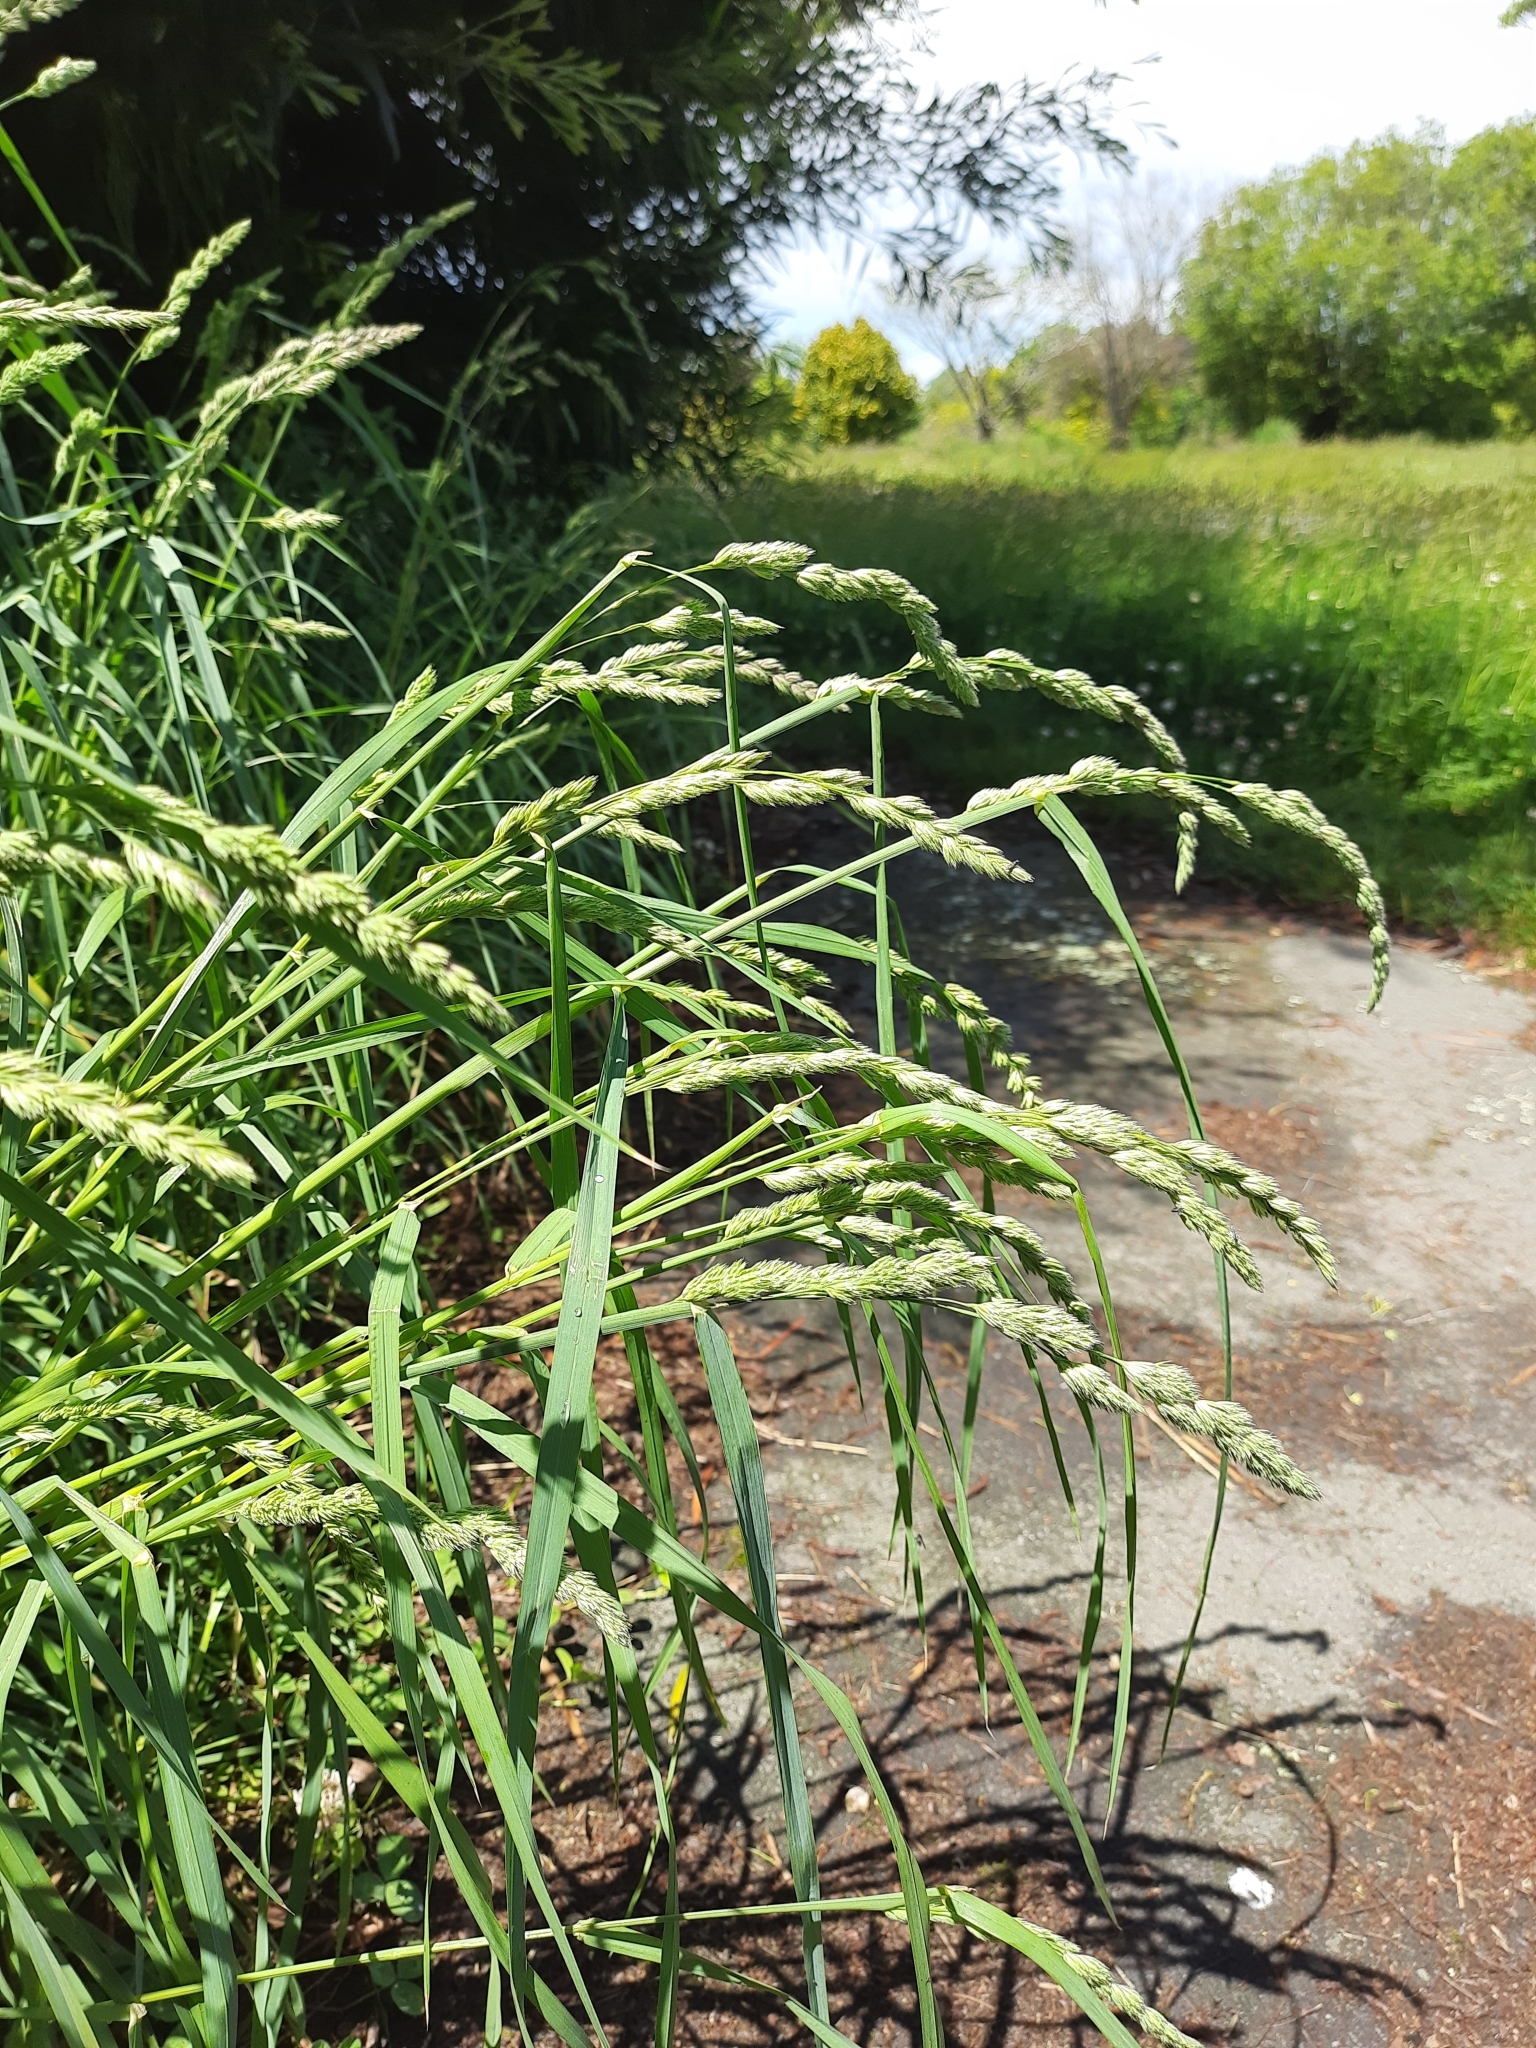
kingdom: Plantae
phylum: Tracheophyta
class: Liliopsida
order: Poales
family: Poaceae
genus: Dactylis
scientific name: Dactylis glomerata
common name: Orchardgrass
